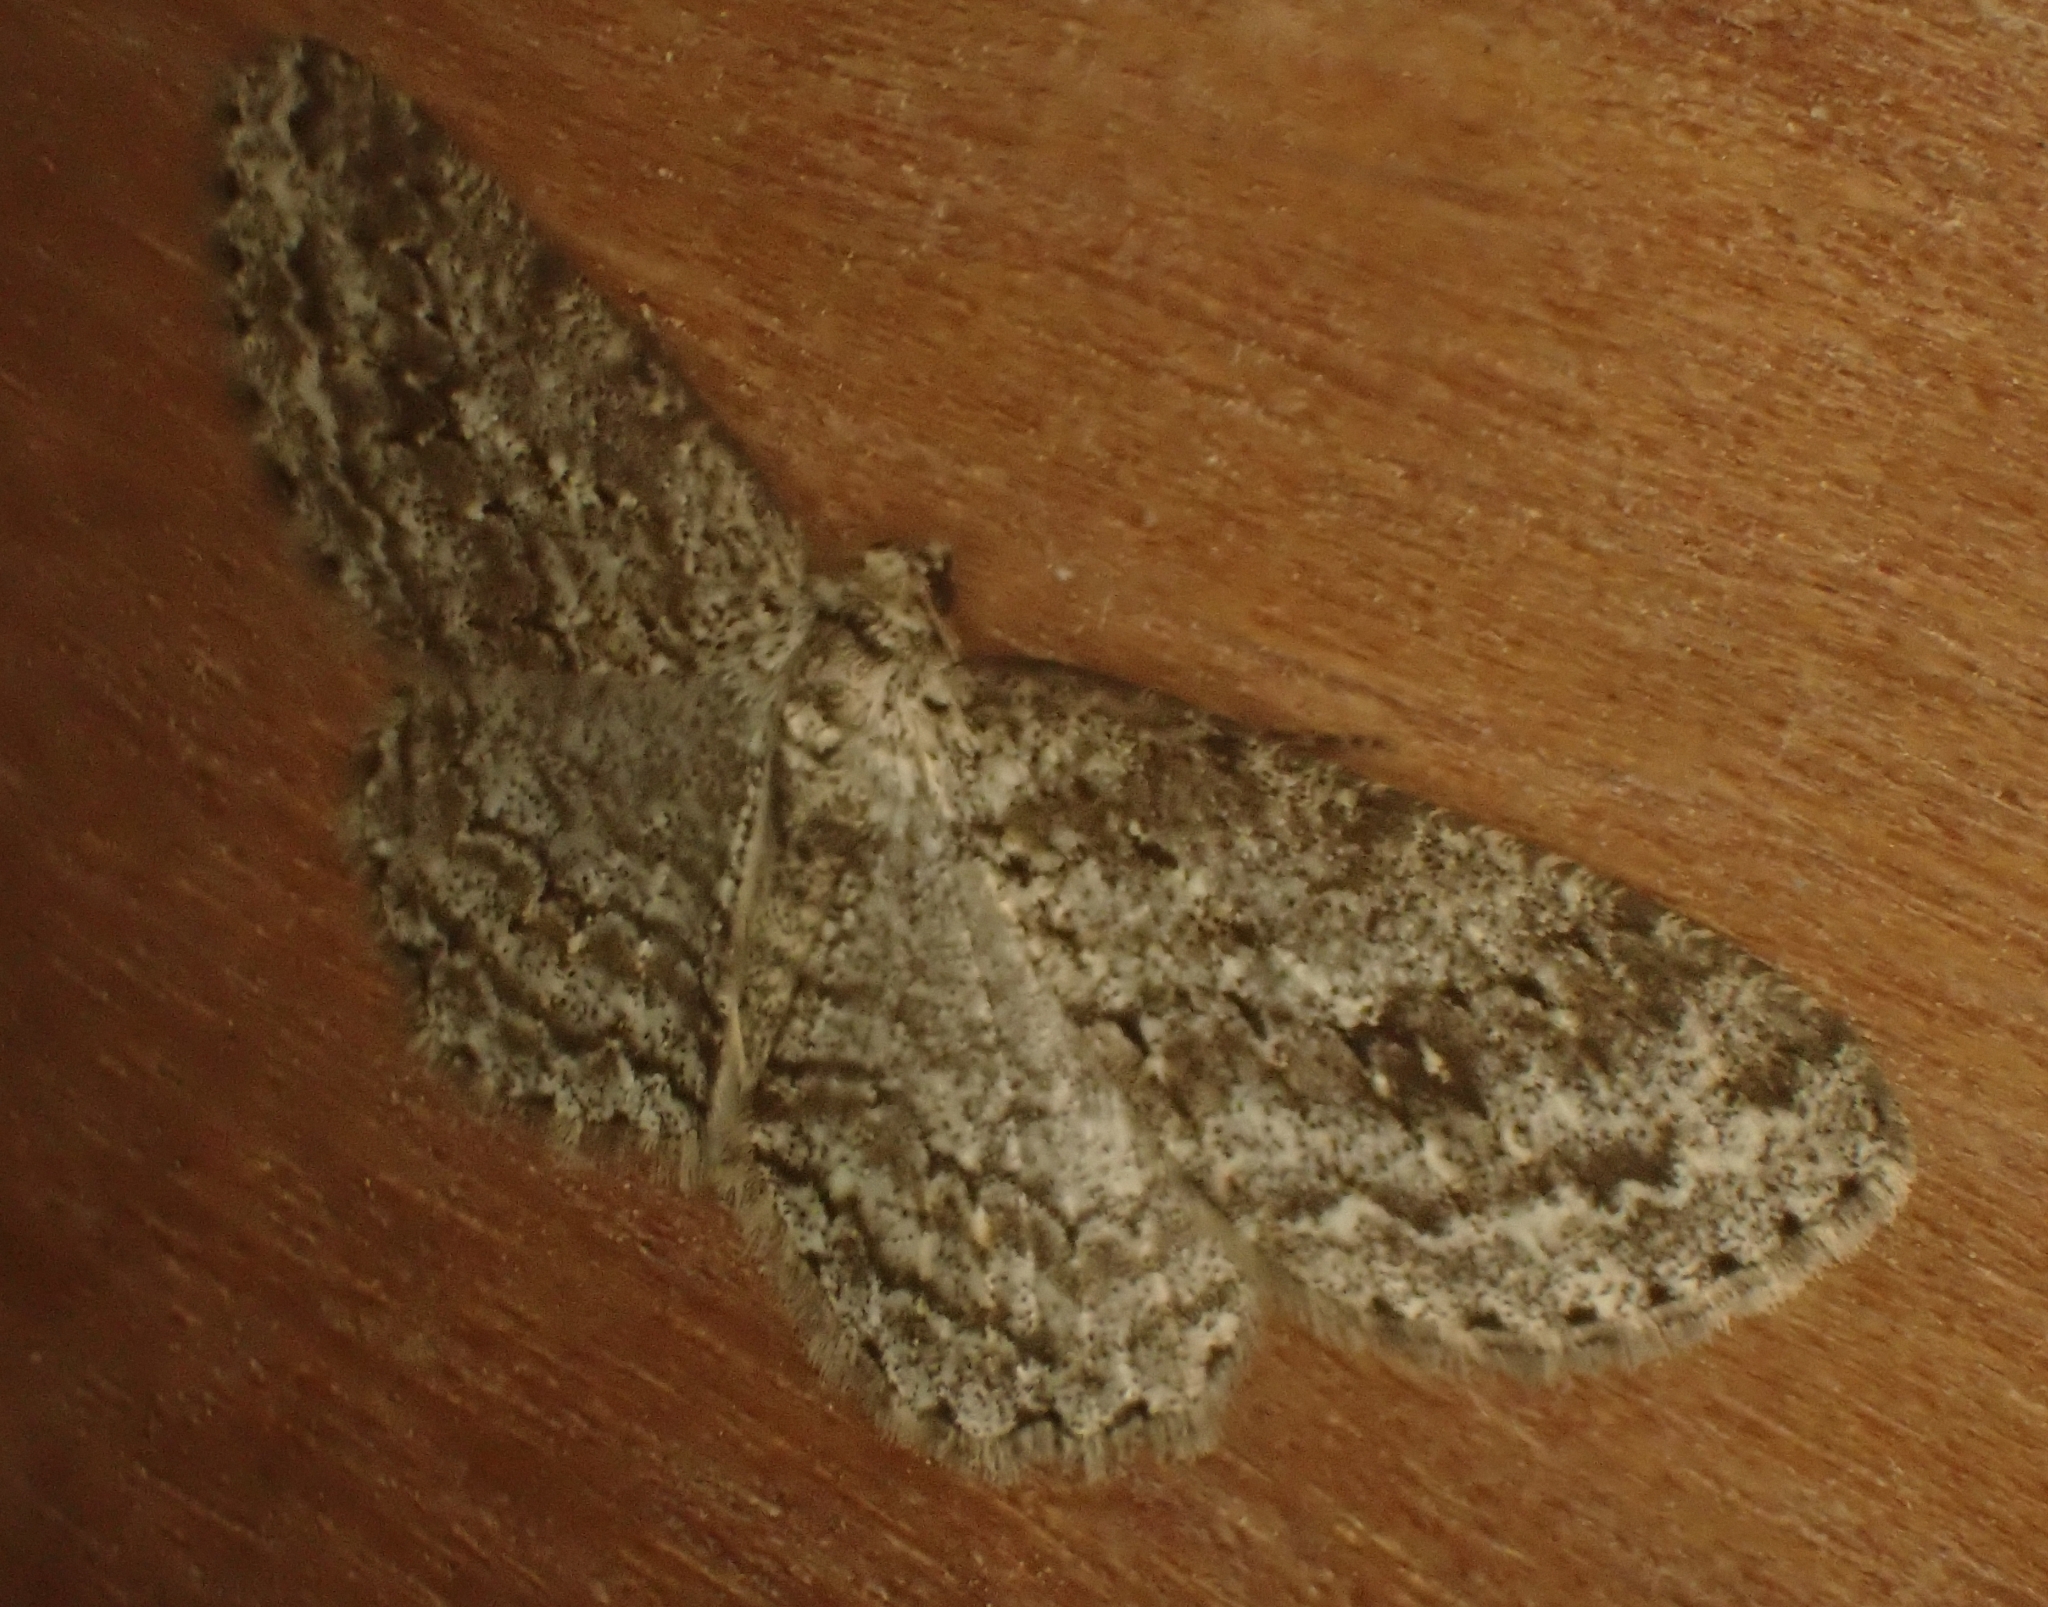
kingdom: Animalia
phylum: Arthropoda
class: Insecta
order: Lepidoptera
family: Geometridae
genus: Ectropis
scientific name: Ectropis crepuscularia
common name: Engrailed
